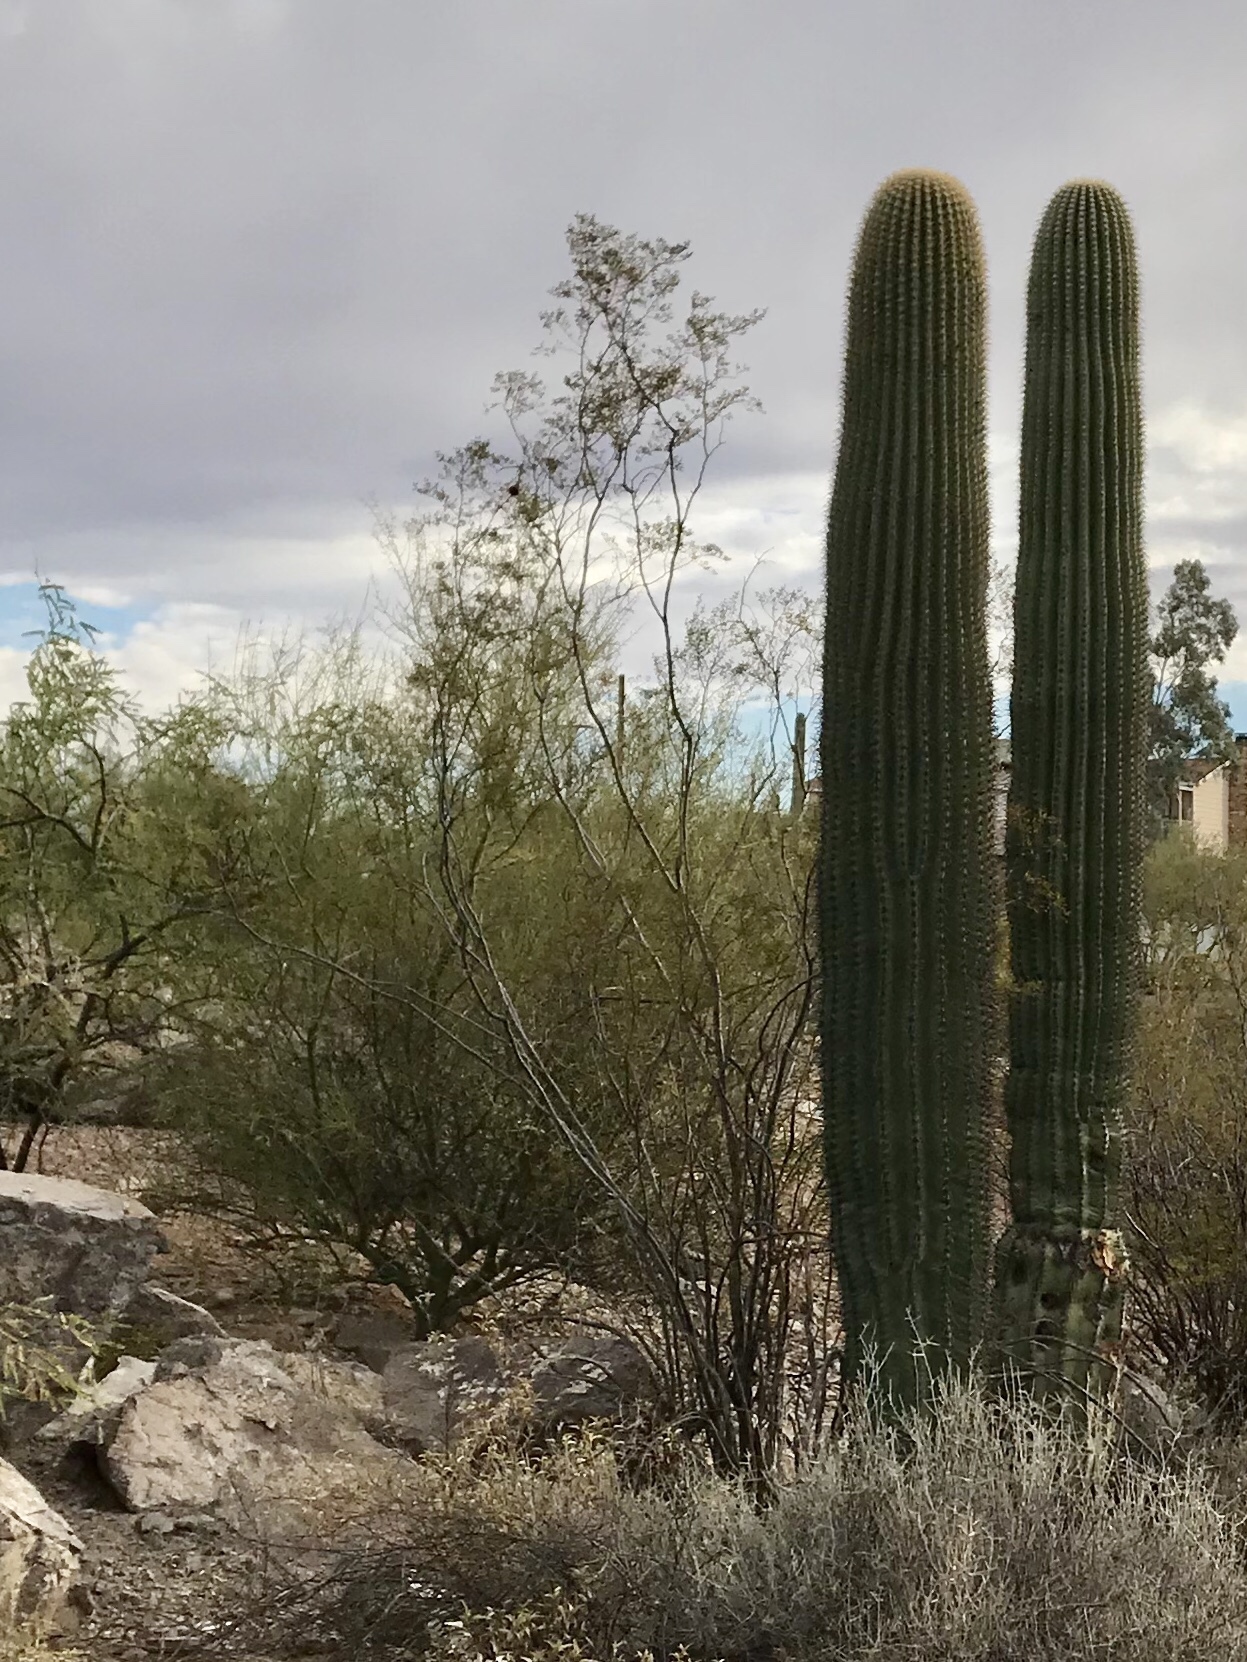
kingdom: Plantae
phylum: Tracheophyta
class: Magnoliopsida
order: Zygophyllales
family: Zygophyllaceae
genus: Larrea
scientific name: Larrea tridentata
